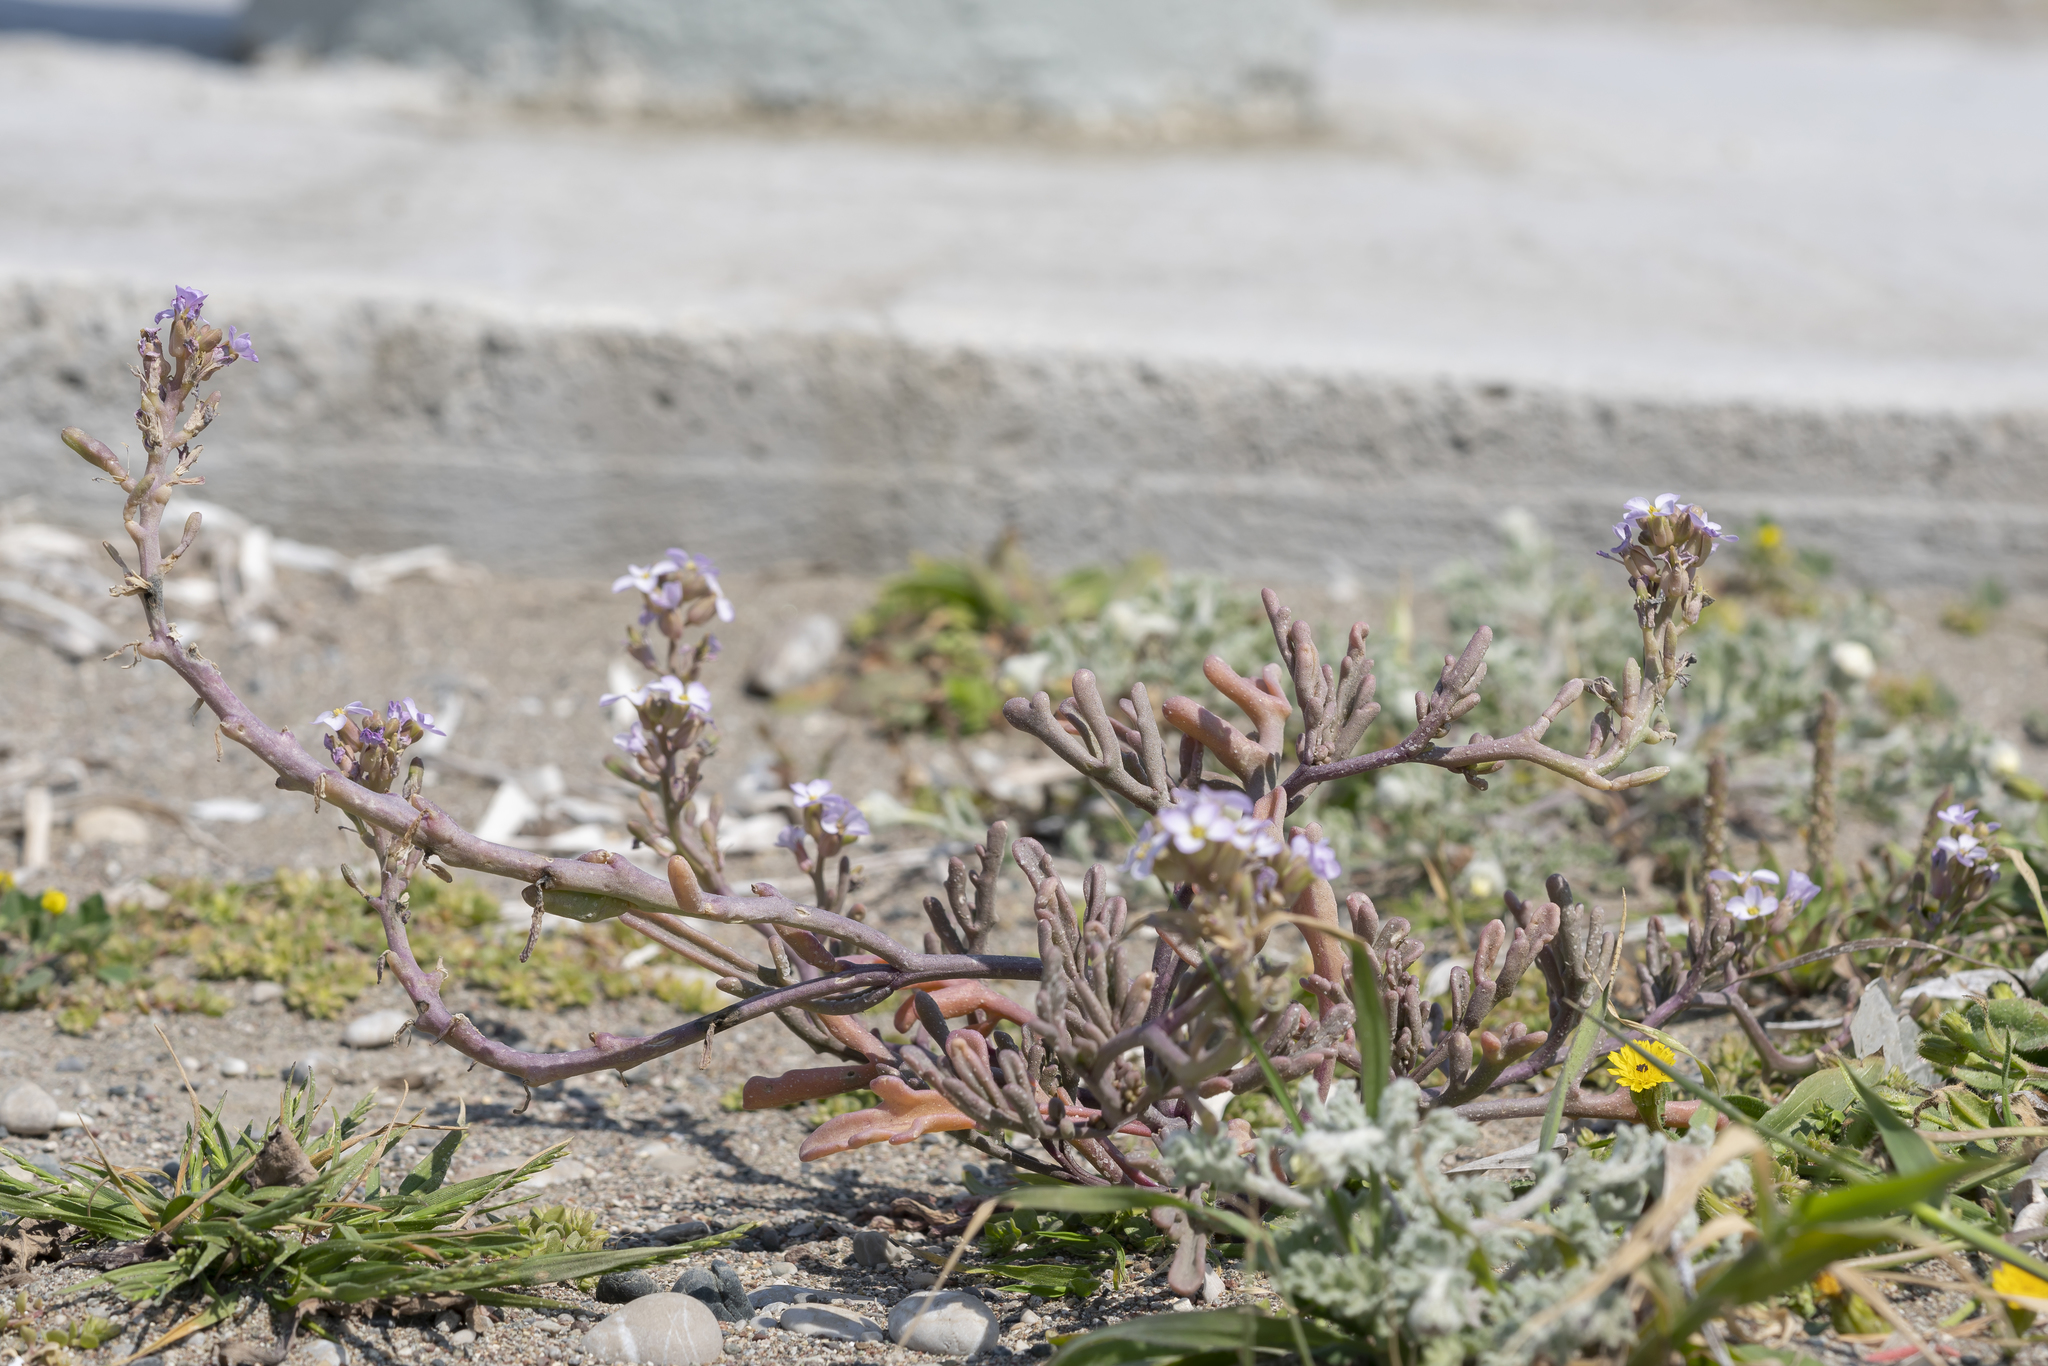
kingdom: Plantae
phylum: Tracheophyta
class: Magnoliopsida
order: Brassicales
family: Brassicaceae
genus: Cakile
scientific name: Cakile maritima
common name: Sea rocket
